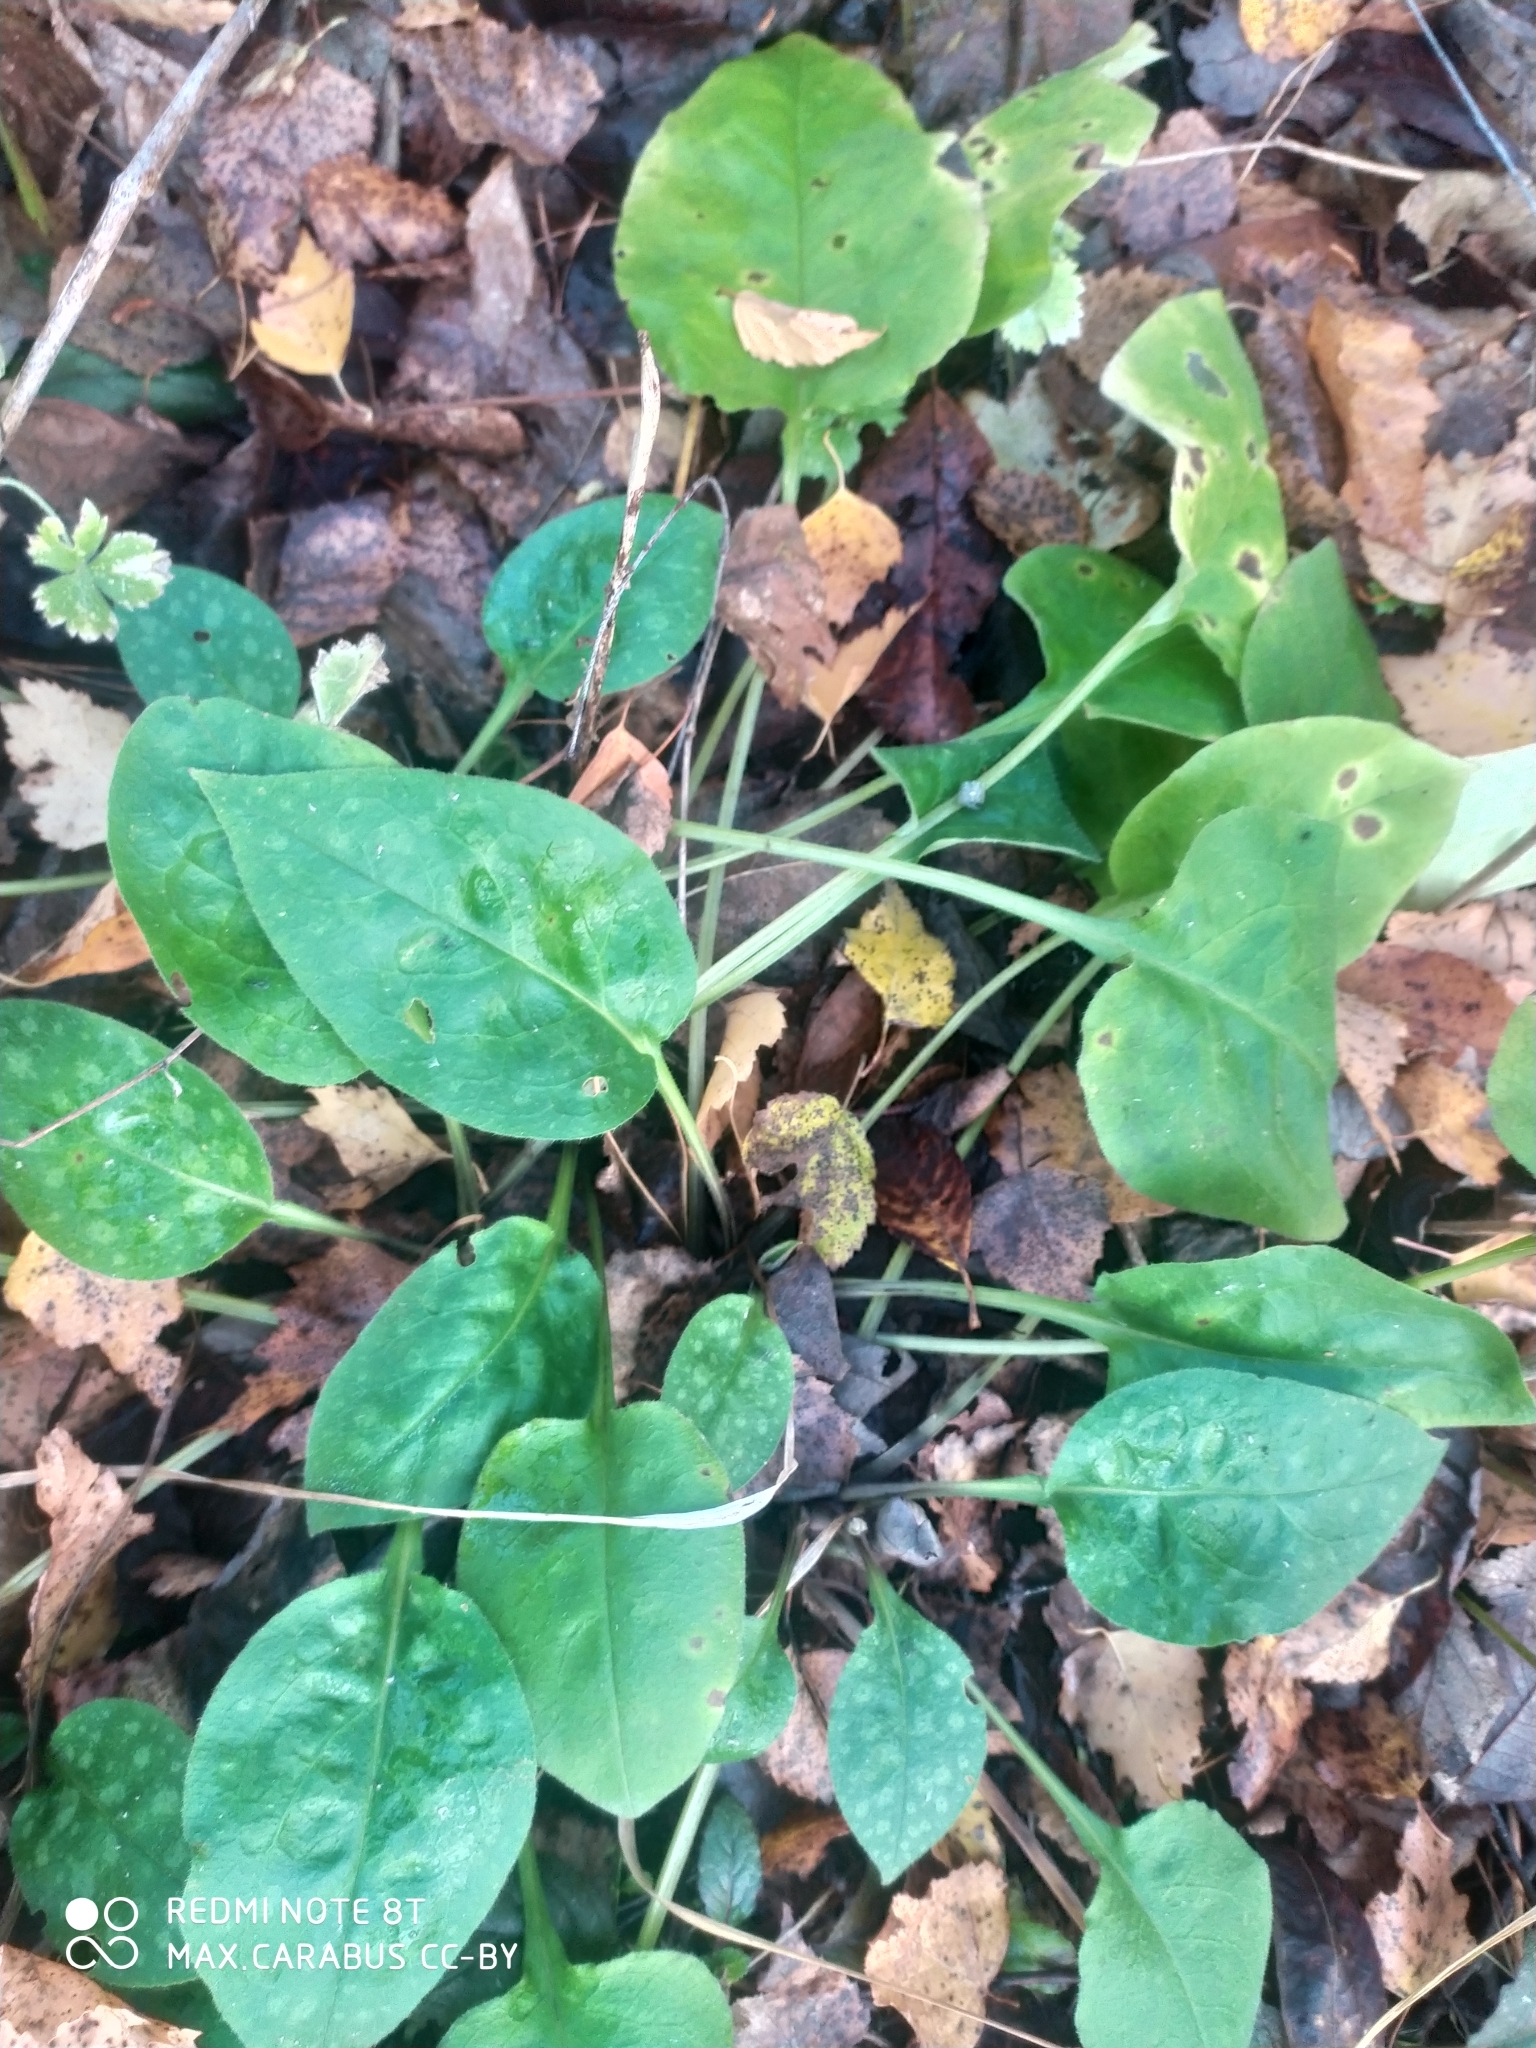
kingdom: Plantae
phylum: Tracheophyta
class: Magnoliopsida
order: Boraginales
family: Boraginaceae
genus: Pulmonaria
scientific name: Pulmonaria obscura
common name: Suffolk lungwort
